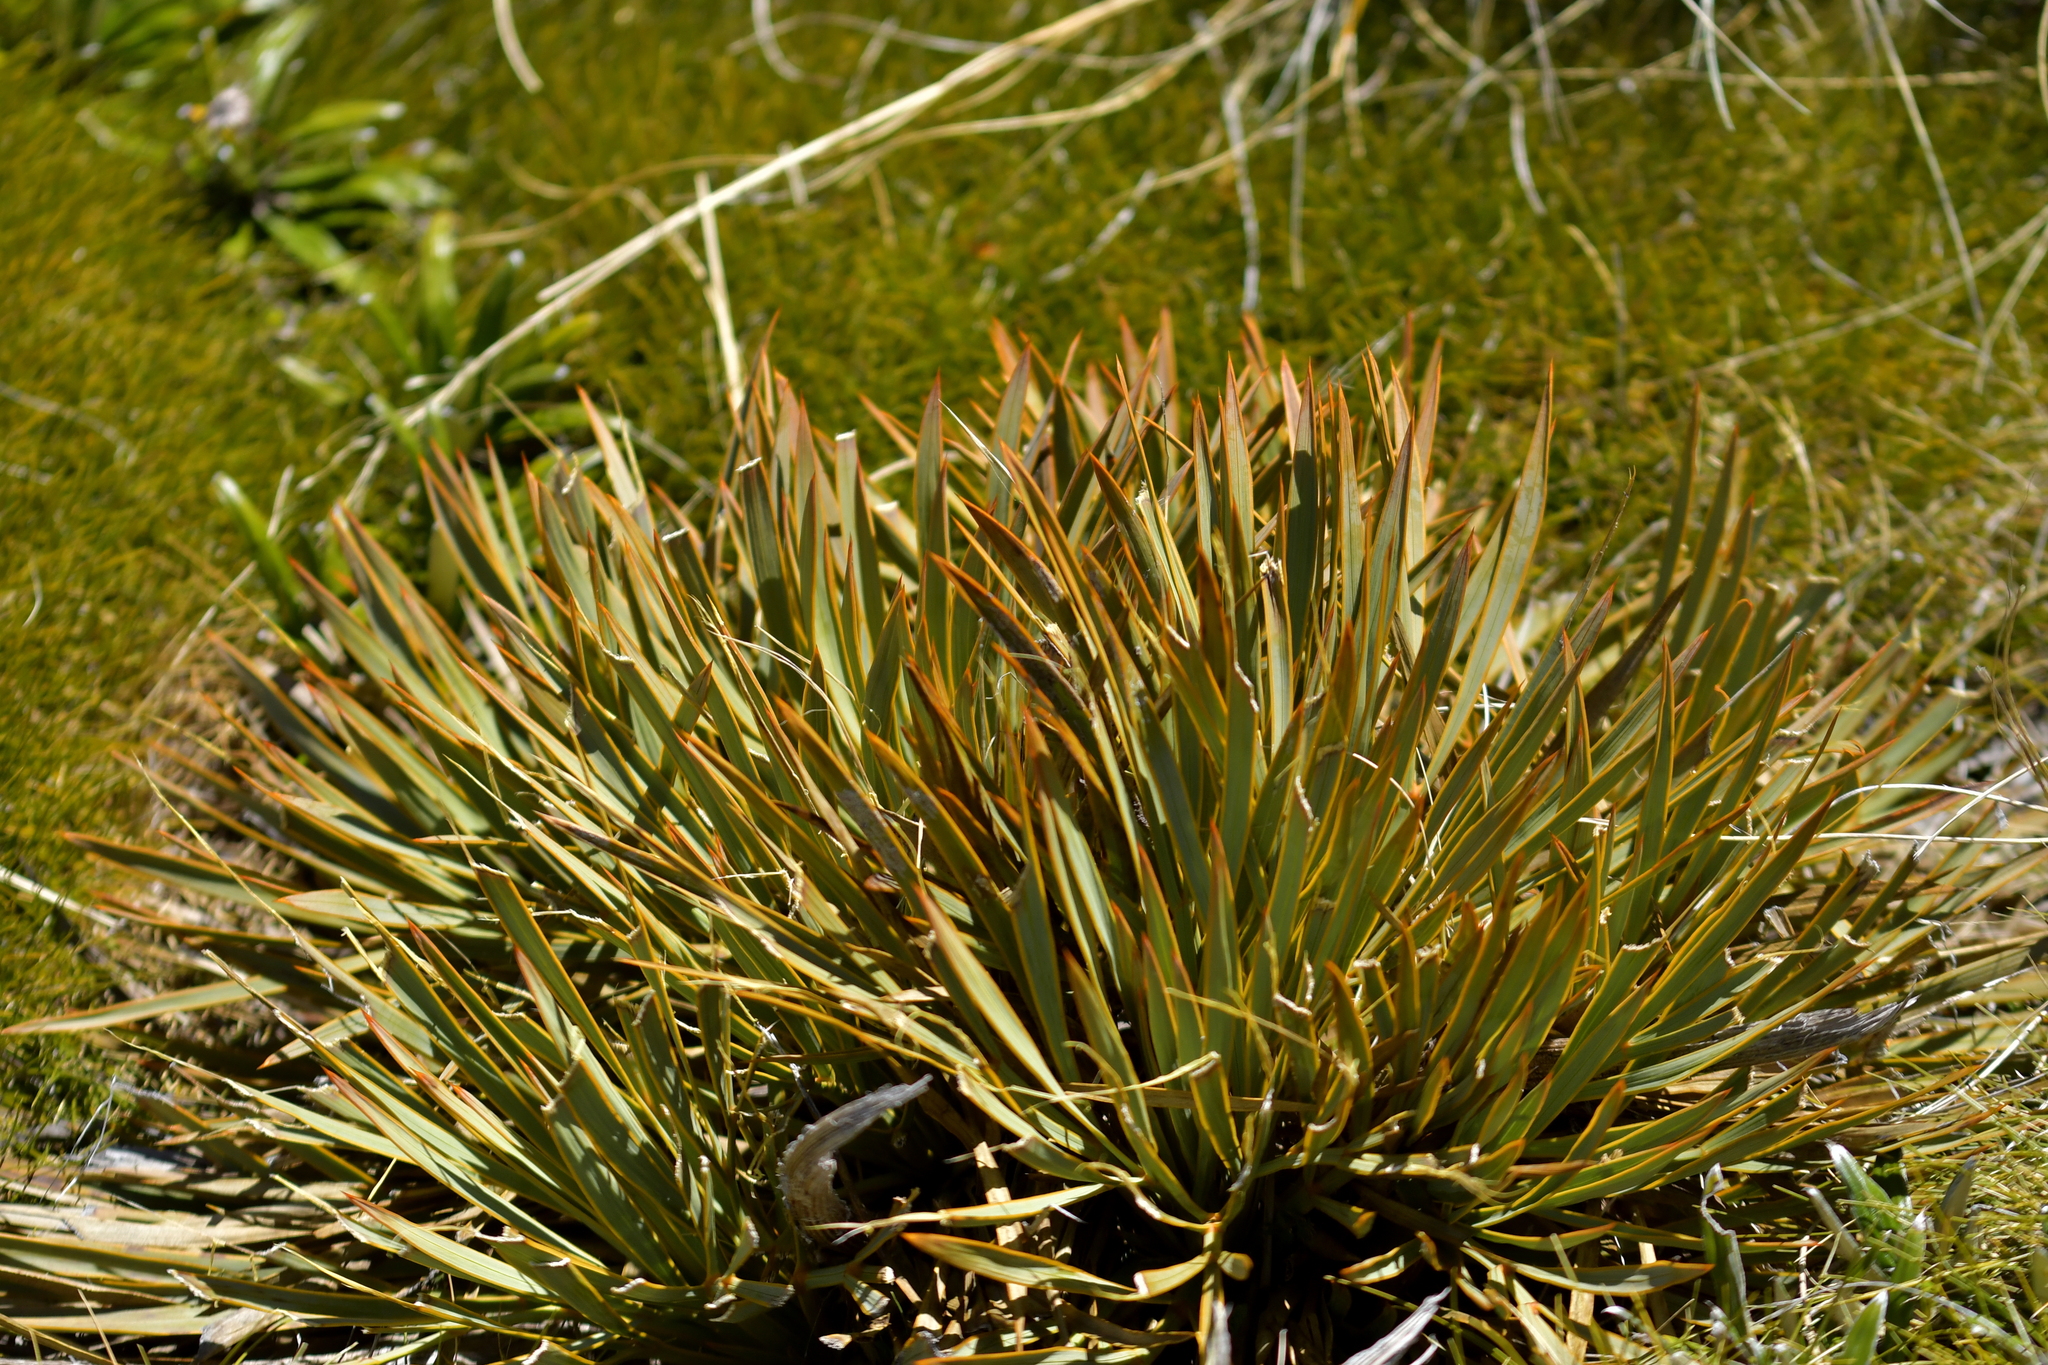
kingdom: Plantae
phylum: Tracheophyta
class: Magnoliopsida
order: Apiales
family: Apiaceae
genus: Aciphylla
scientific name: Aciphylla aurea
